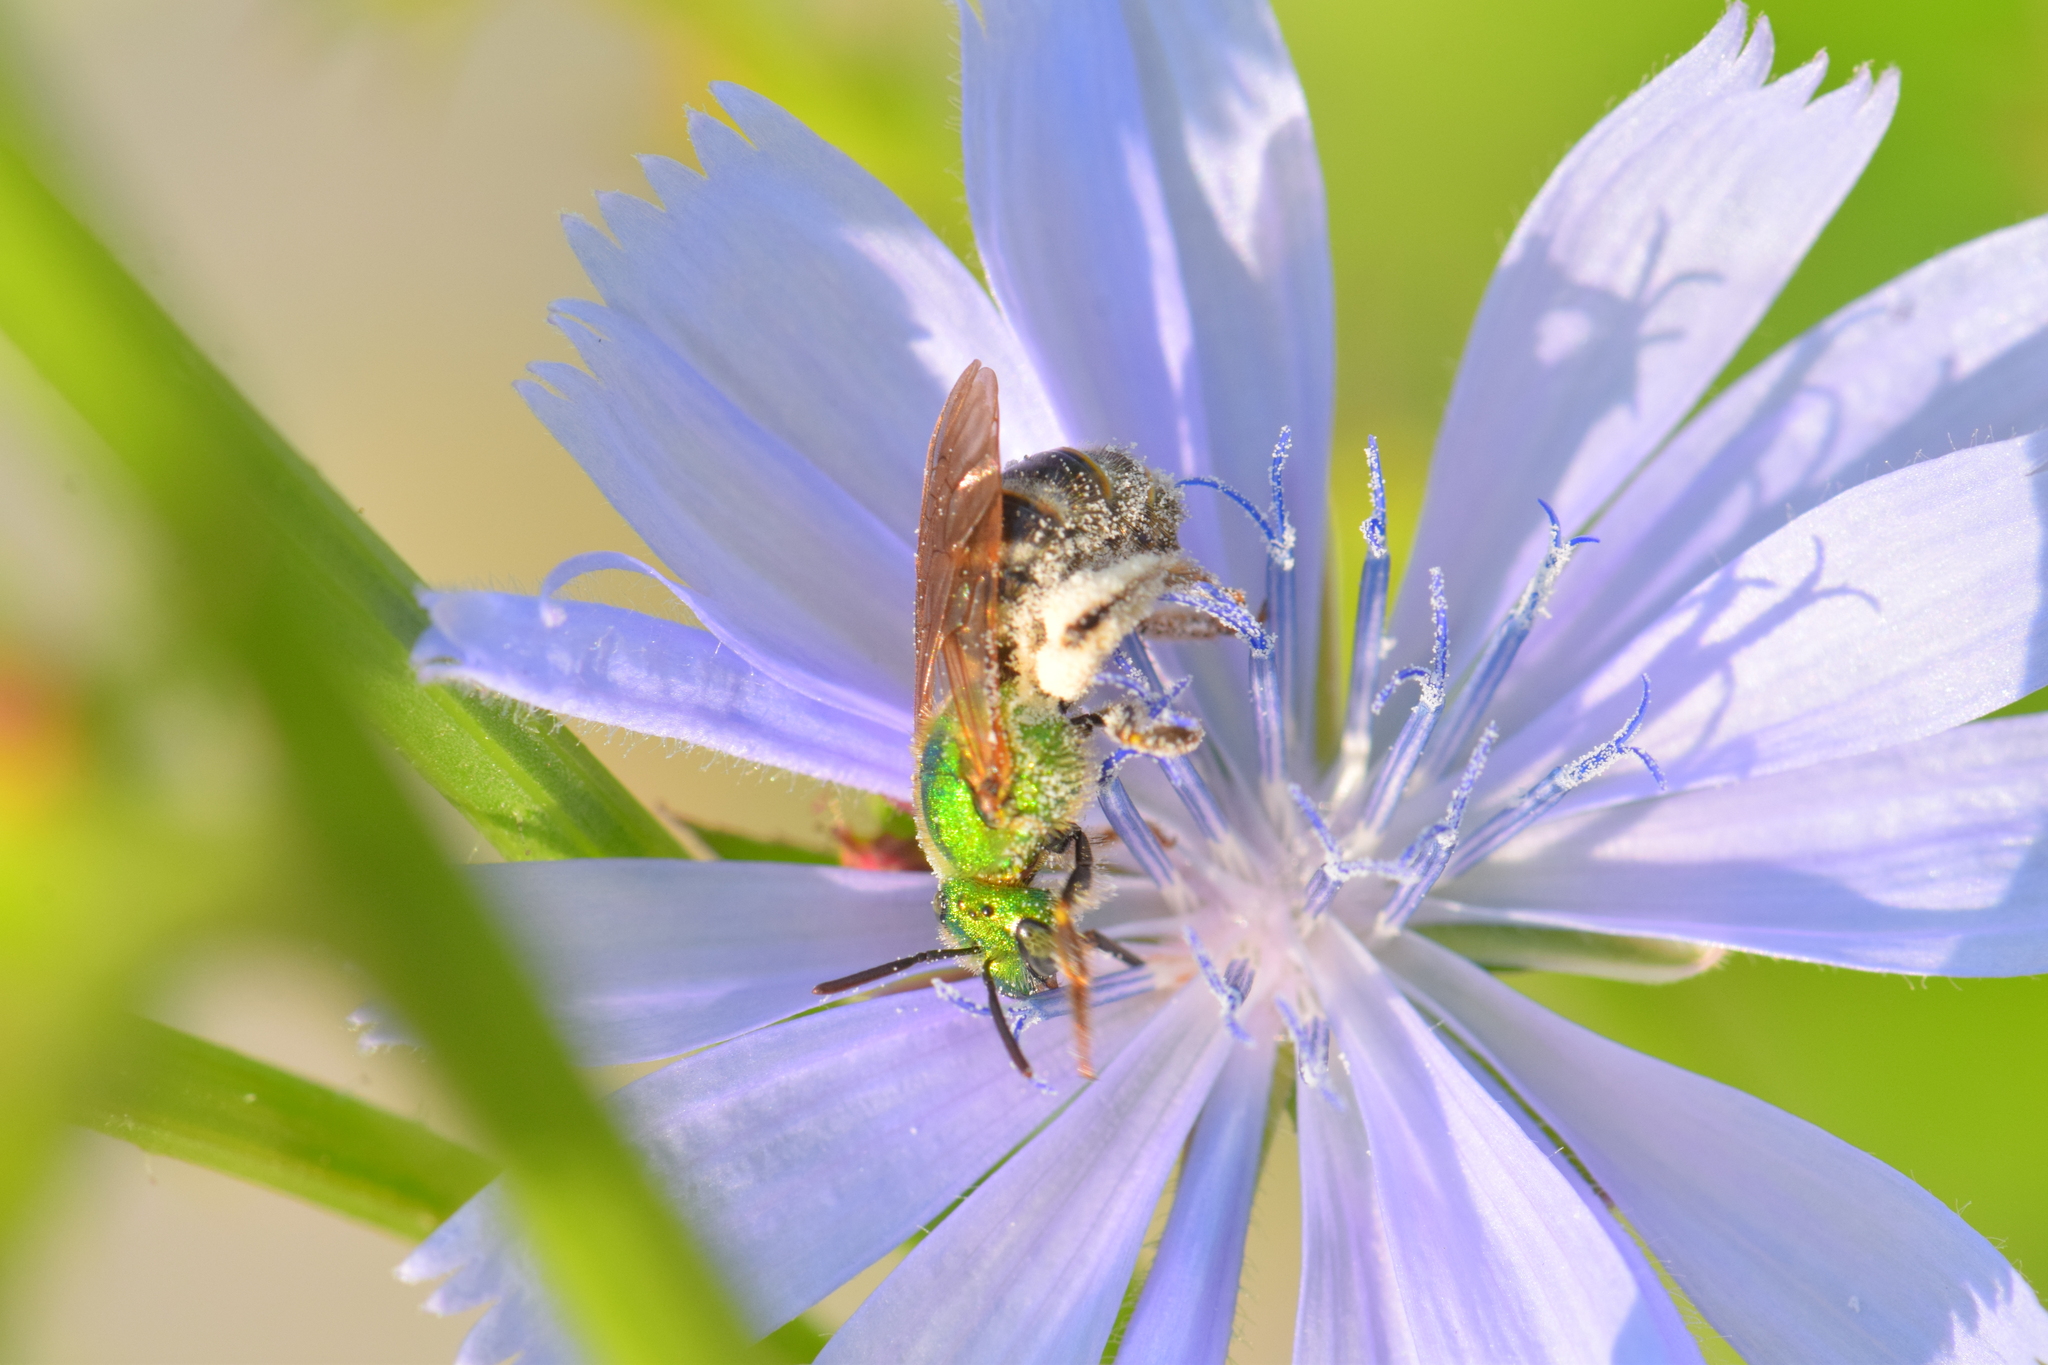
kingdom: Animalia
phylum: Arthropoda
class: Insecta
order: Hymenoptera
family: Halictidae
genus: Agapostemon
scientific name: Agapostemon virescens
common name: Bicolored striped sweat bee
